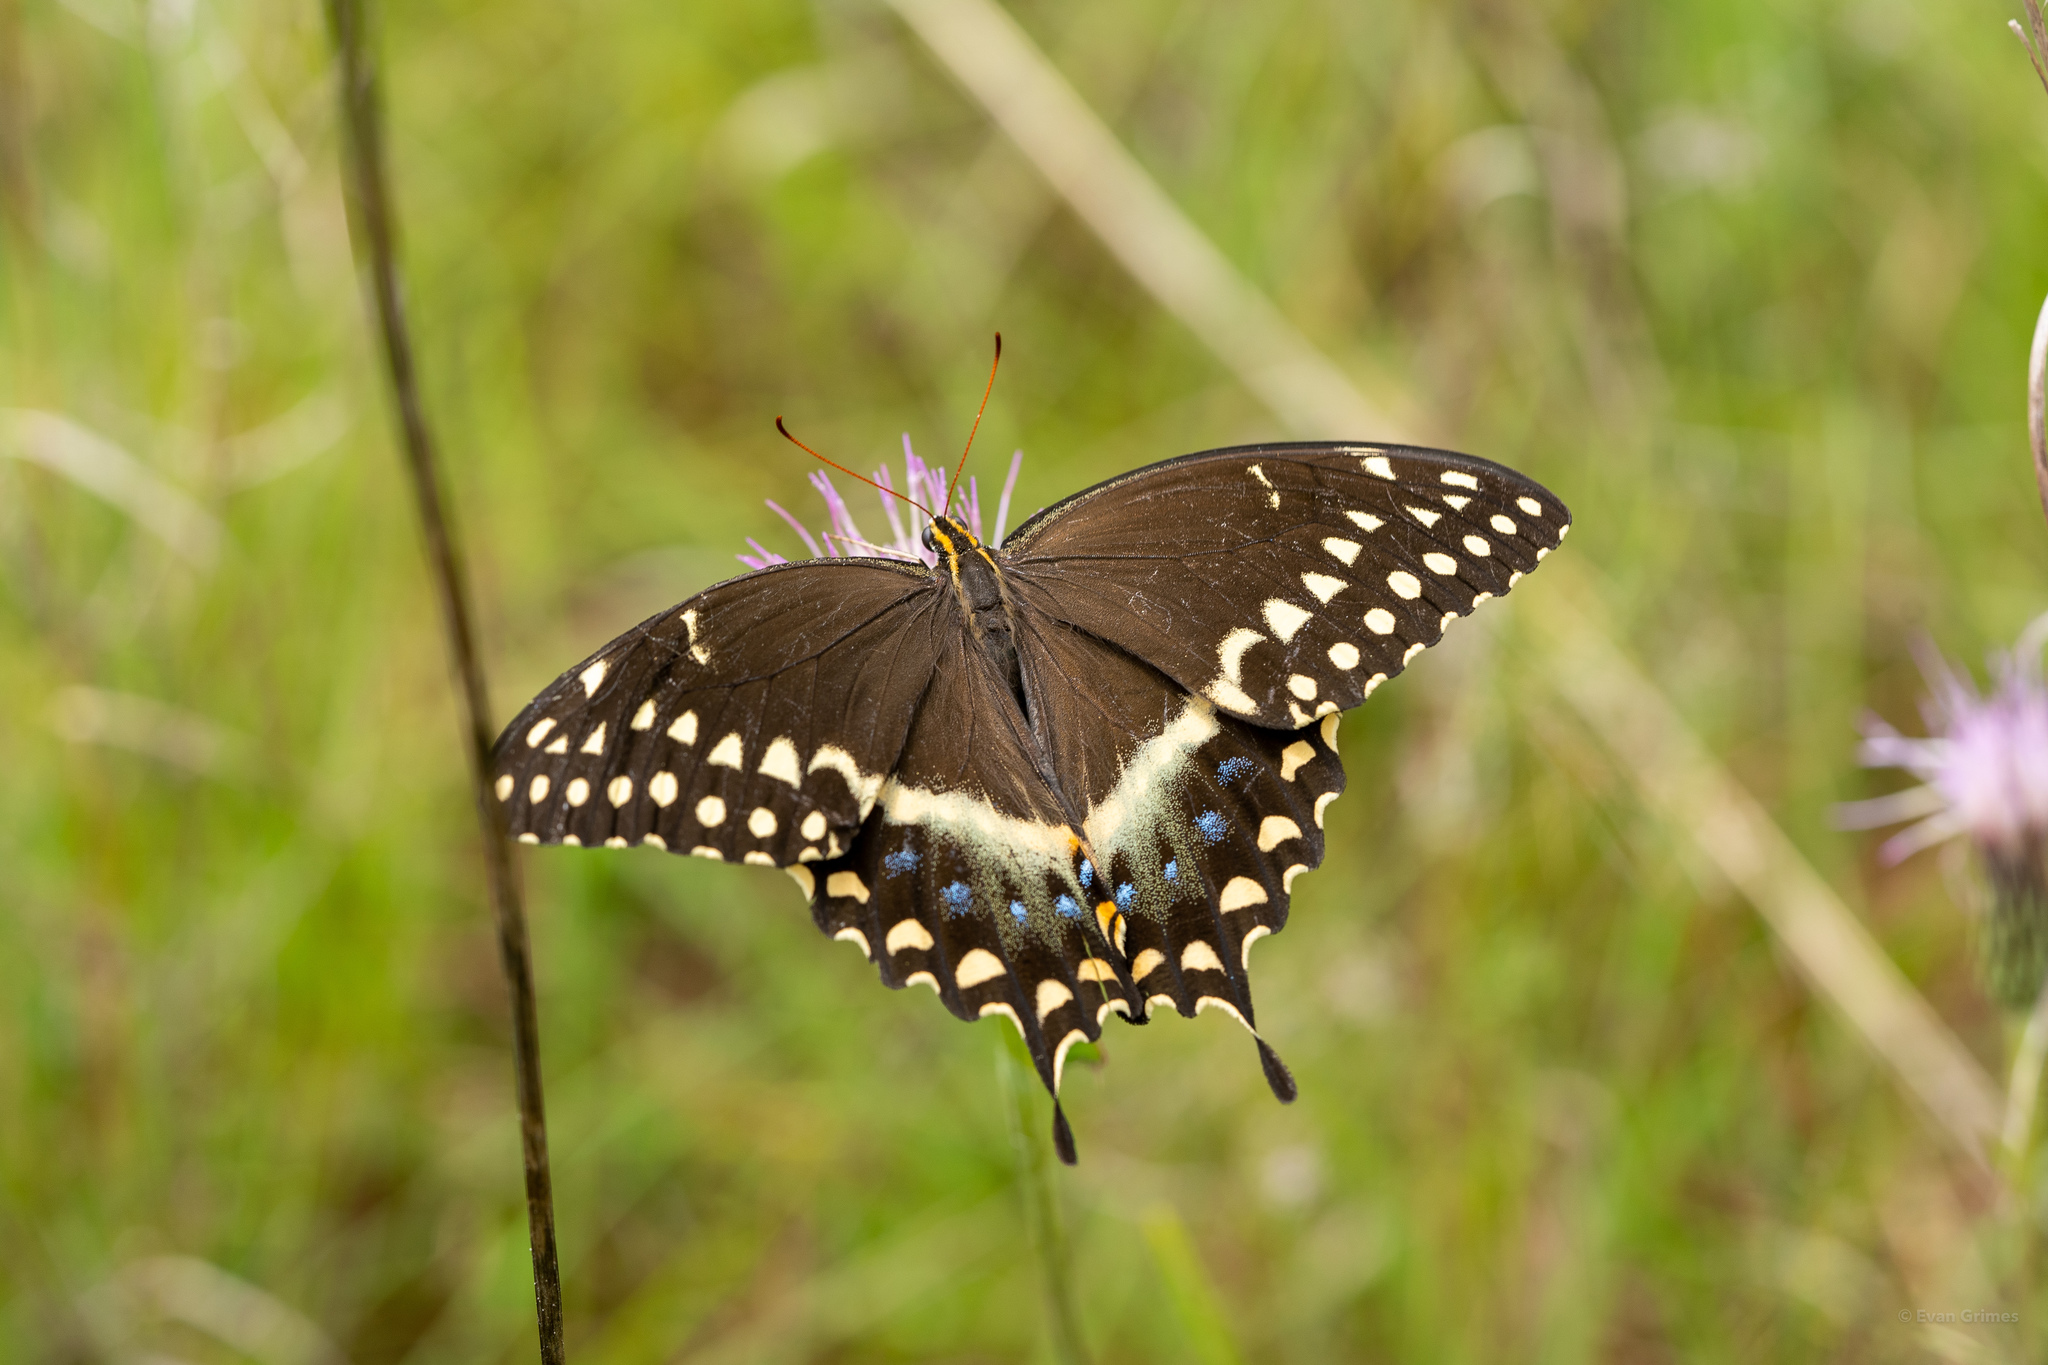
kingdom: Animalia
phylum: Arthropoda
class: Insecta
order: Lepidoptera
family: Papilionidae
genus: Papilio
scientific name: Papilio palamedes
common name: Palamedes swallowtail
